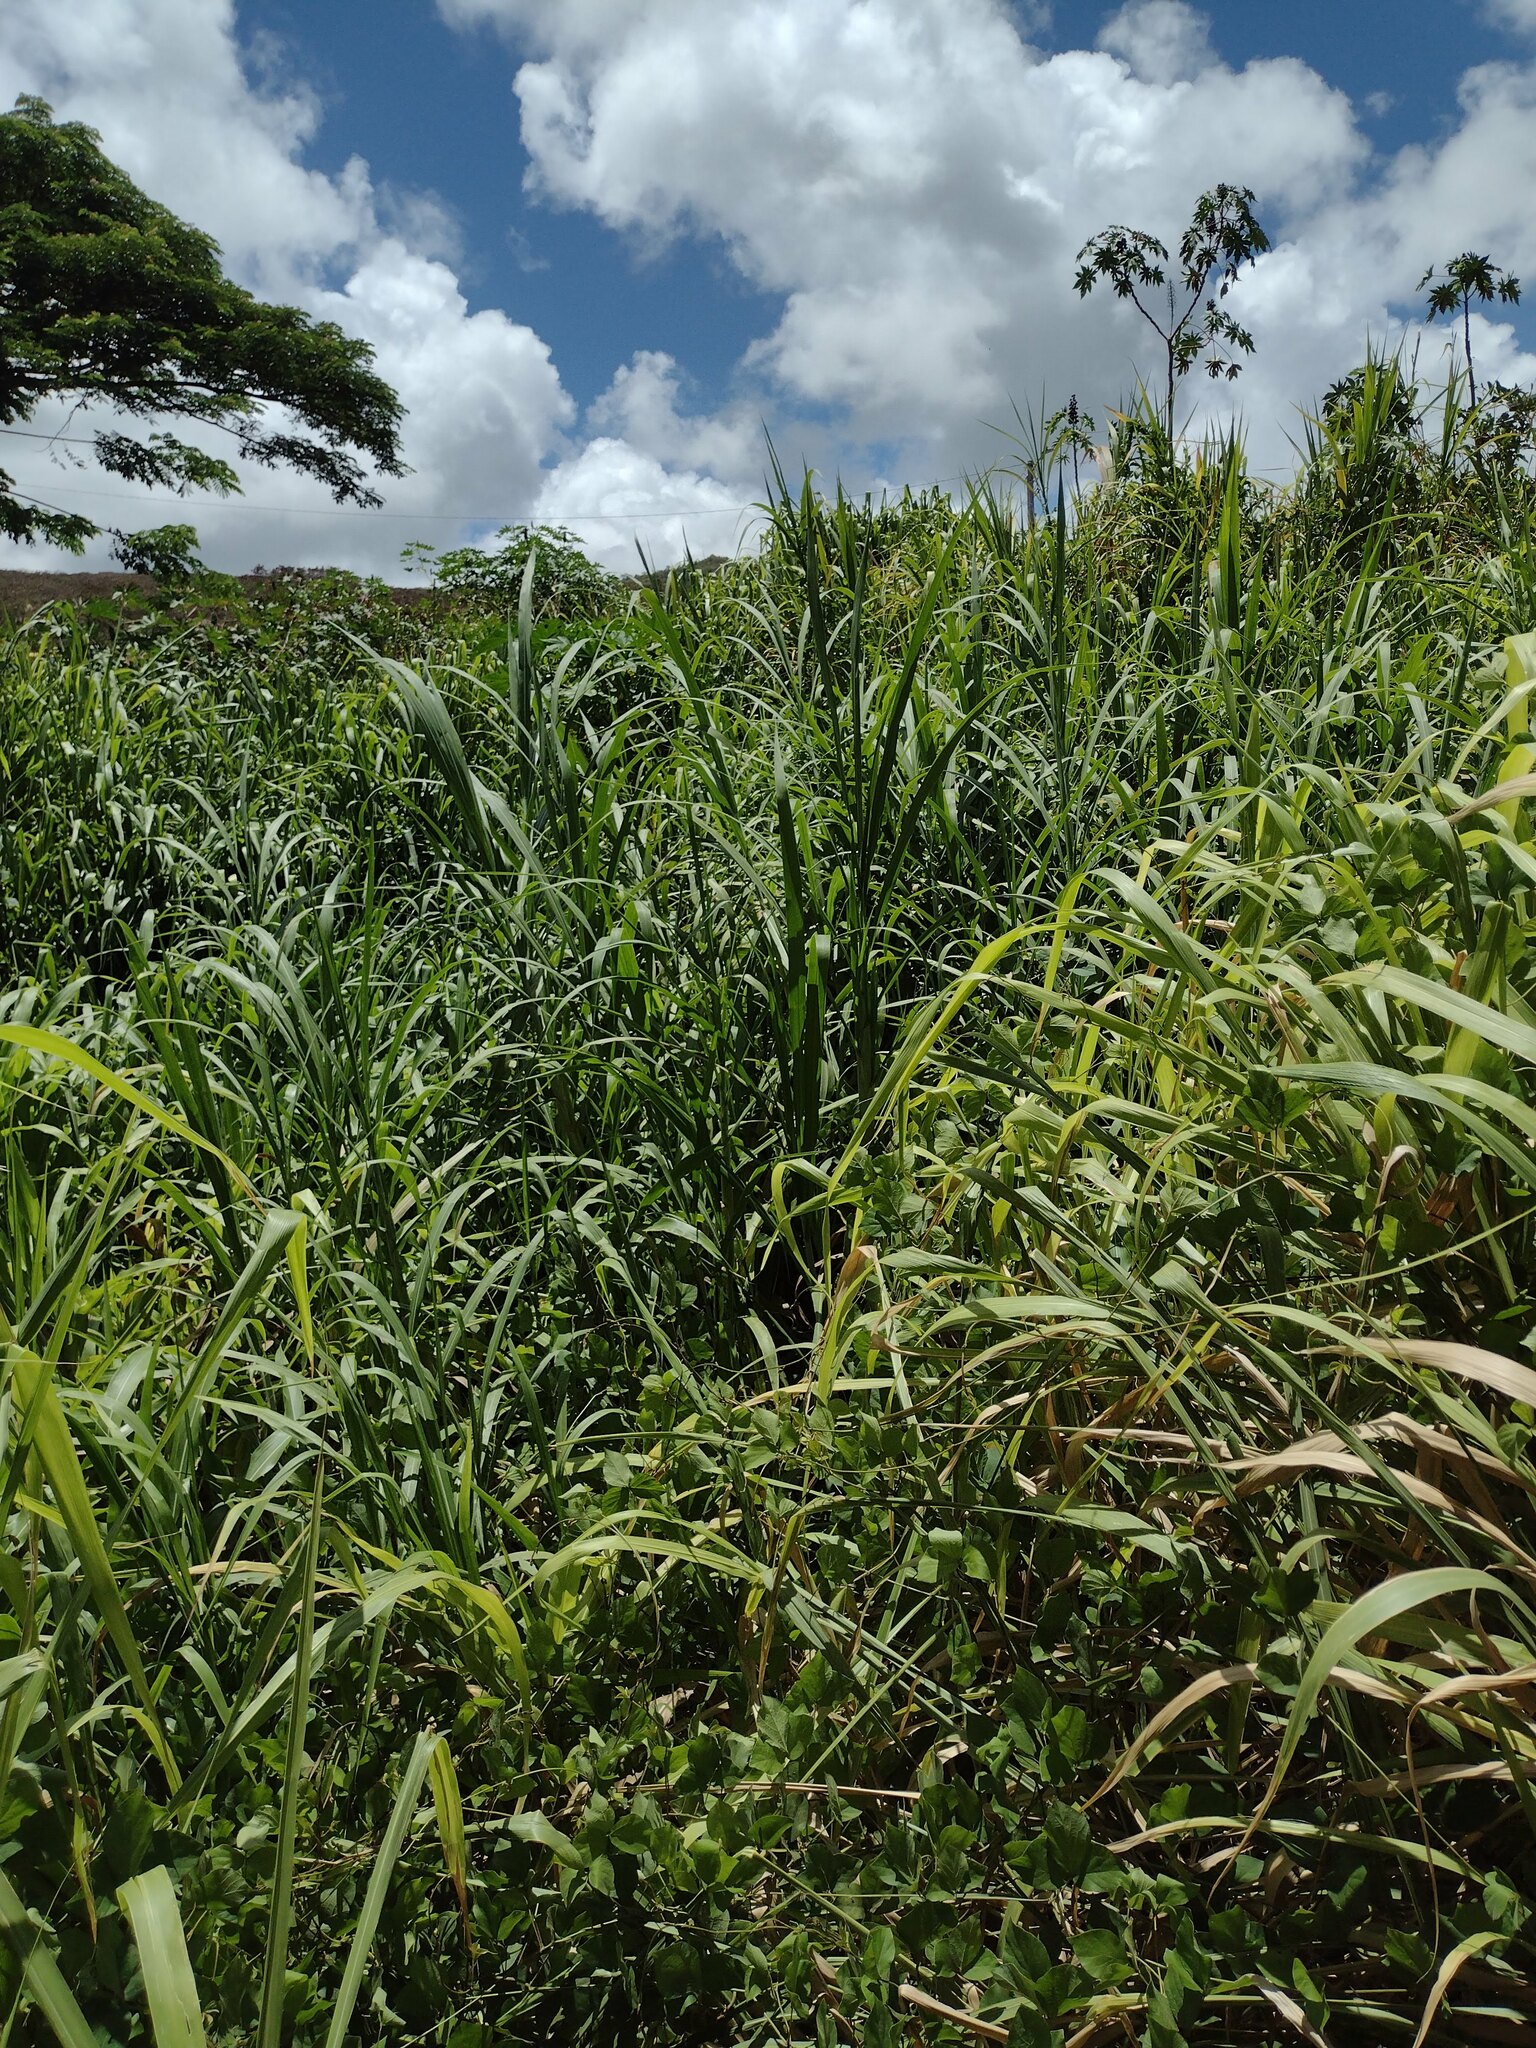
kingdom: Plantae
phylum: Tracheophyta
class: Liliopsida
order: Poales
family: Poaceae
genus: Megathyrsus
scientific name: Megathyrsus maximus
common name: Guineagrass
